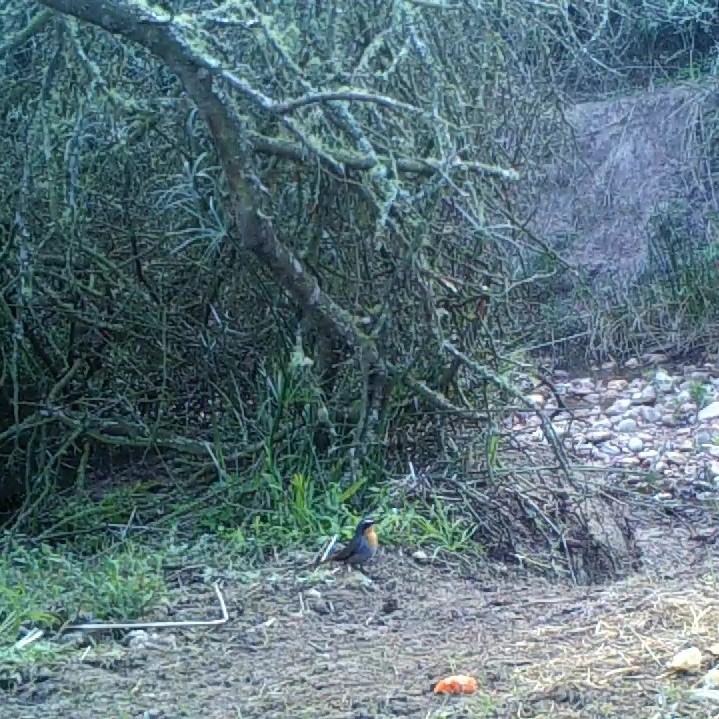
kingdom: Animalia
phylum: Chordata
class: Aves
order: Passeriformes
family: Muscicapidae
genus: Cossypha
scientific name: Cossypha caffra
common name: Cape robin-chat
